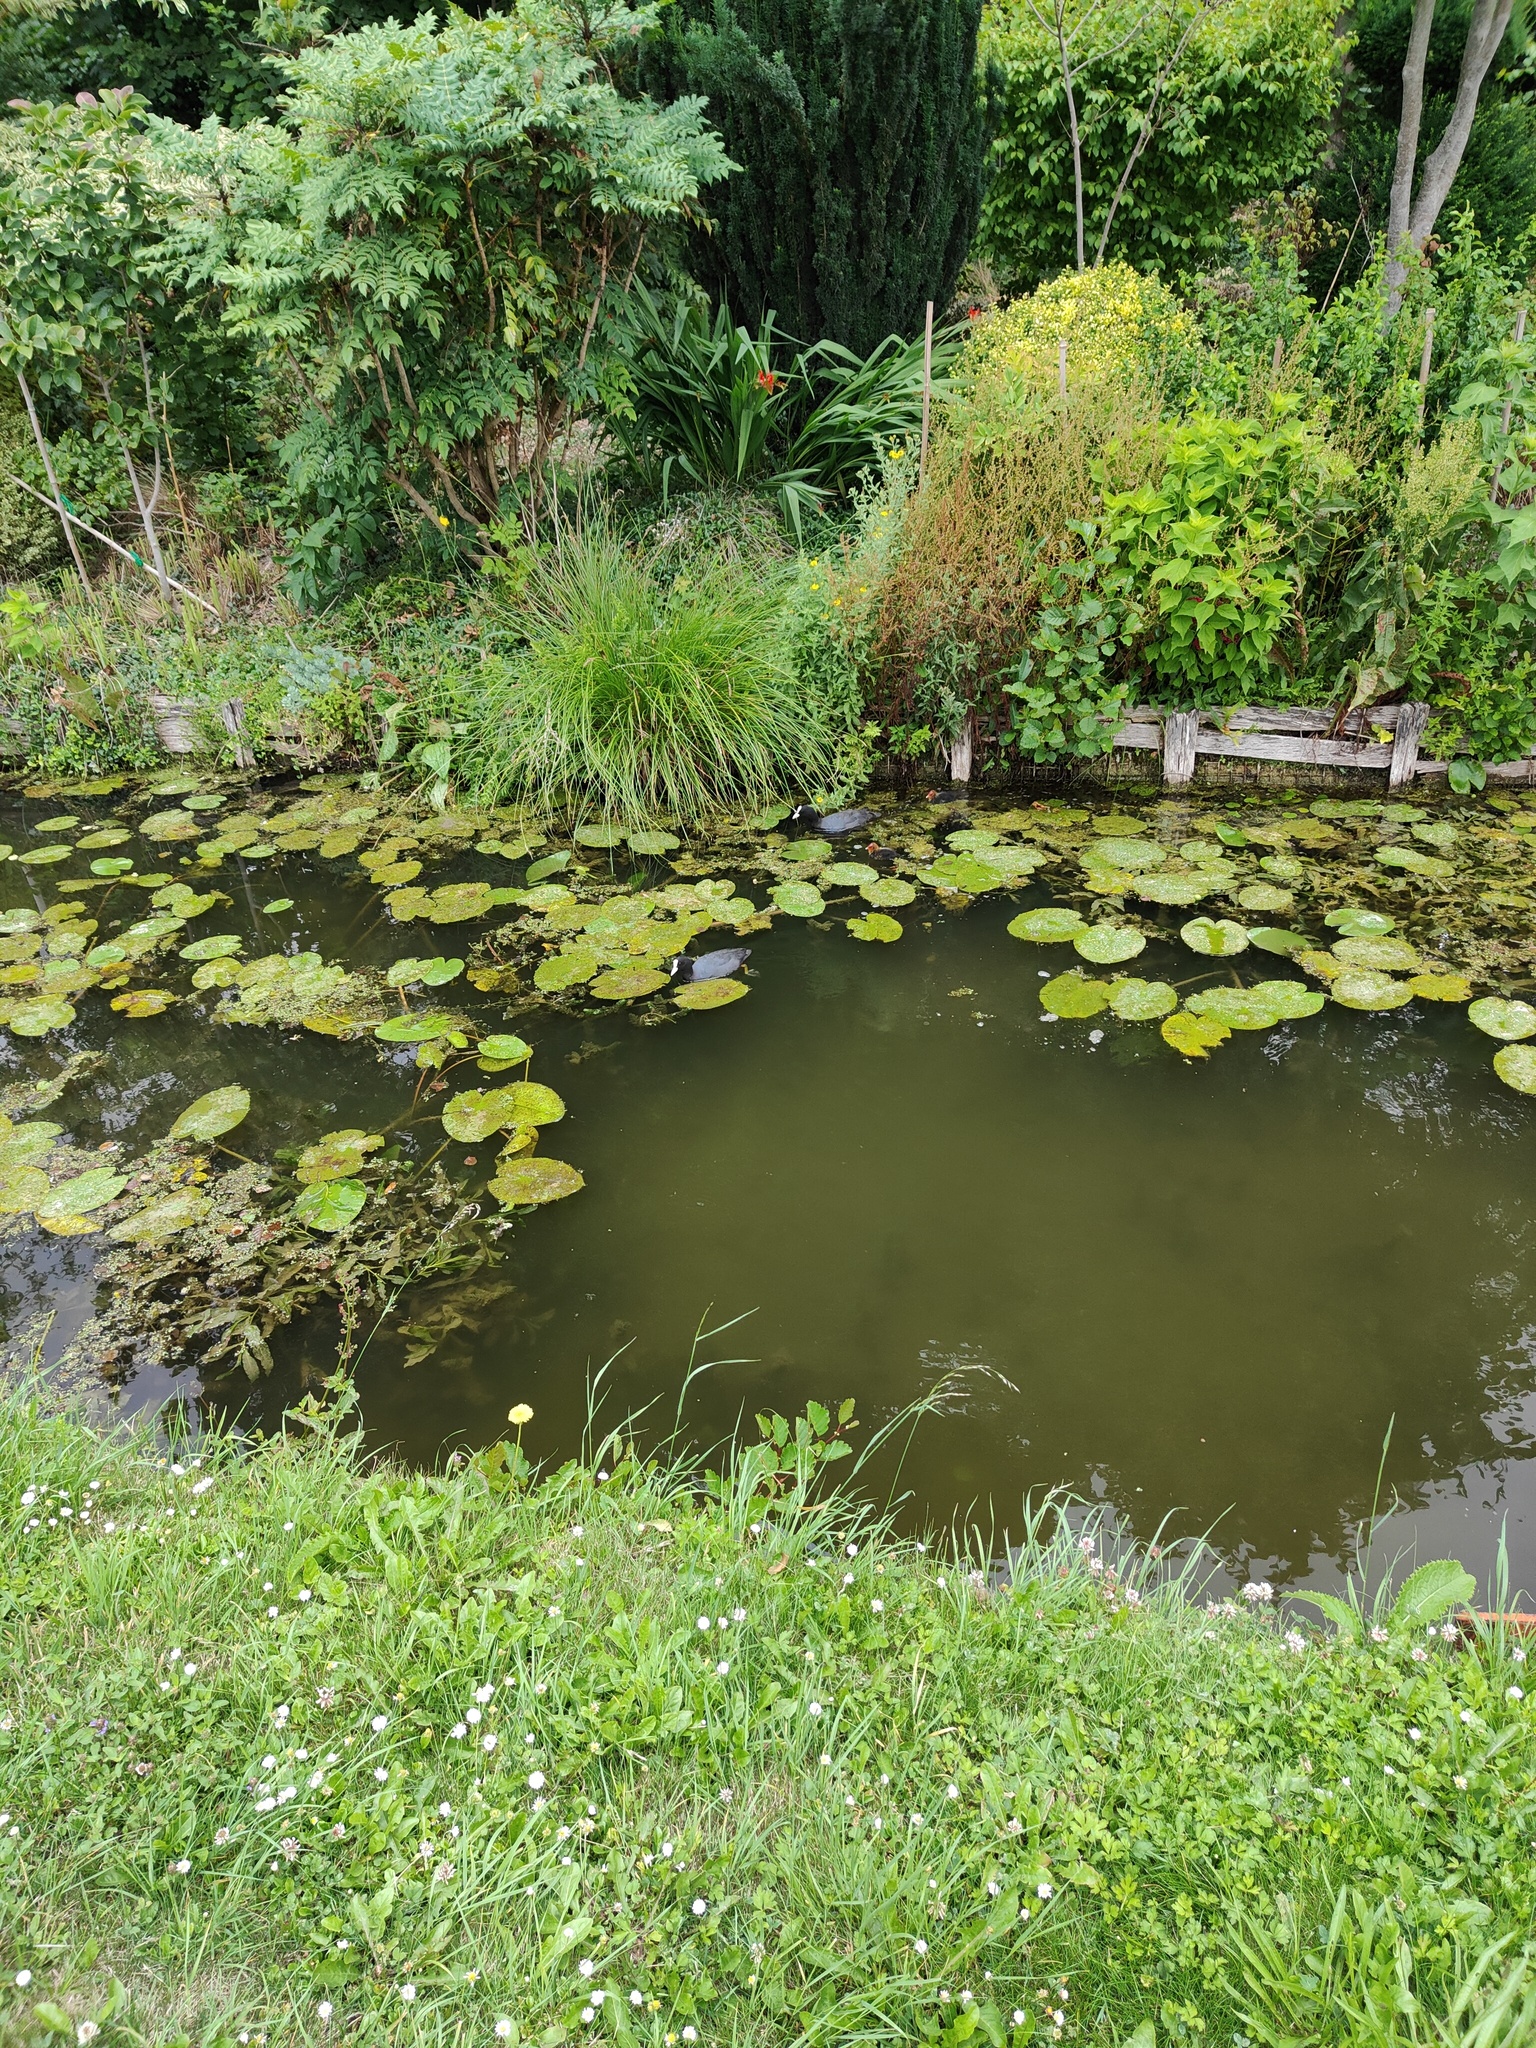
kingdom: Animalia
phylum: Chordata
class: Aves
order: Gruiformes
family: Rallidae
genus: Fulica
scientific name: Fulica atra
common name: Eurasian coot
